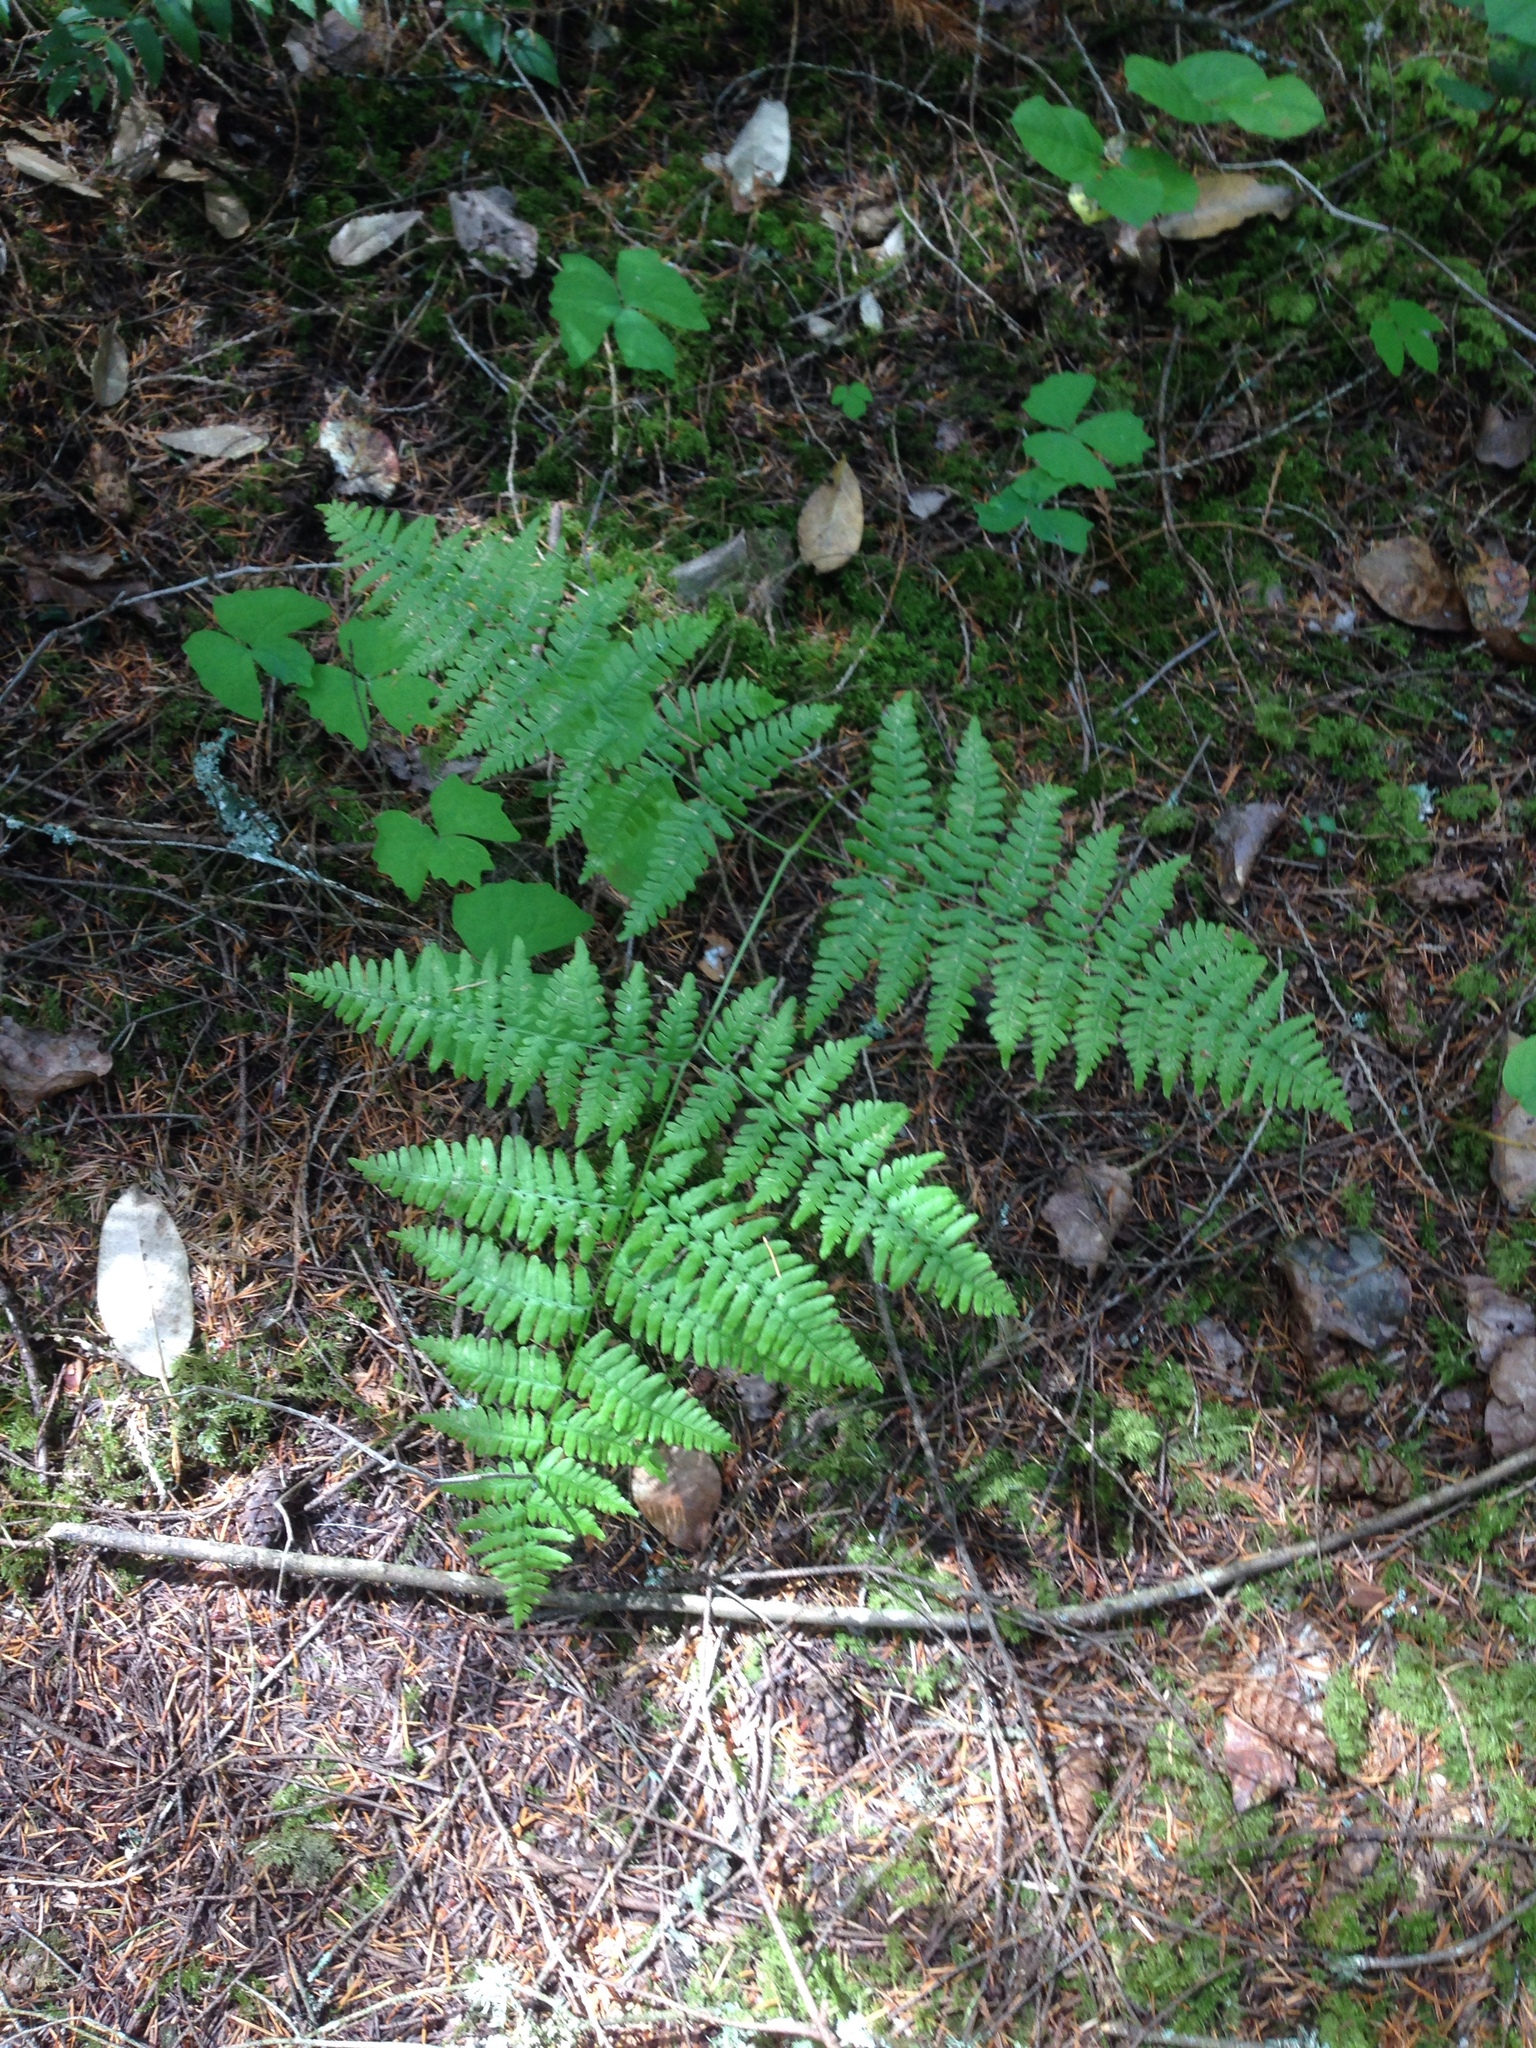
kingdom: Plantae
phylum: Tracheophyta
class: Polypodiopsida
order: Polypodiales
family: Dennstaedtiaceae
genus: Pteridium
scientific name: Pteridium aquilinum
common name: Bracken
